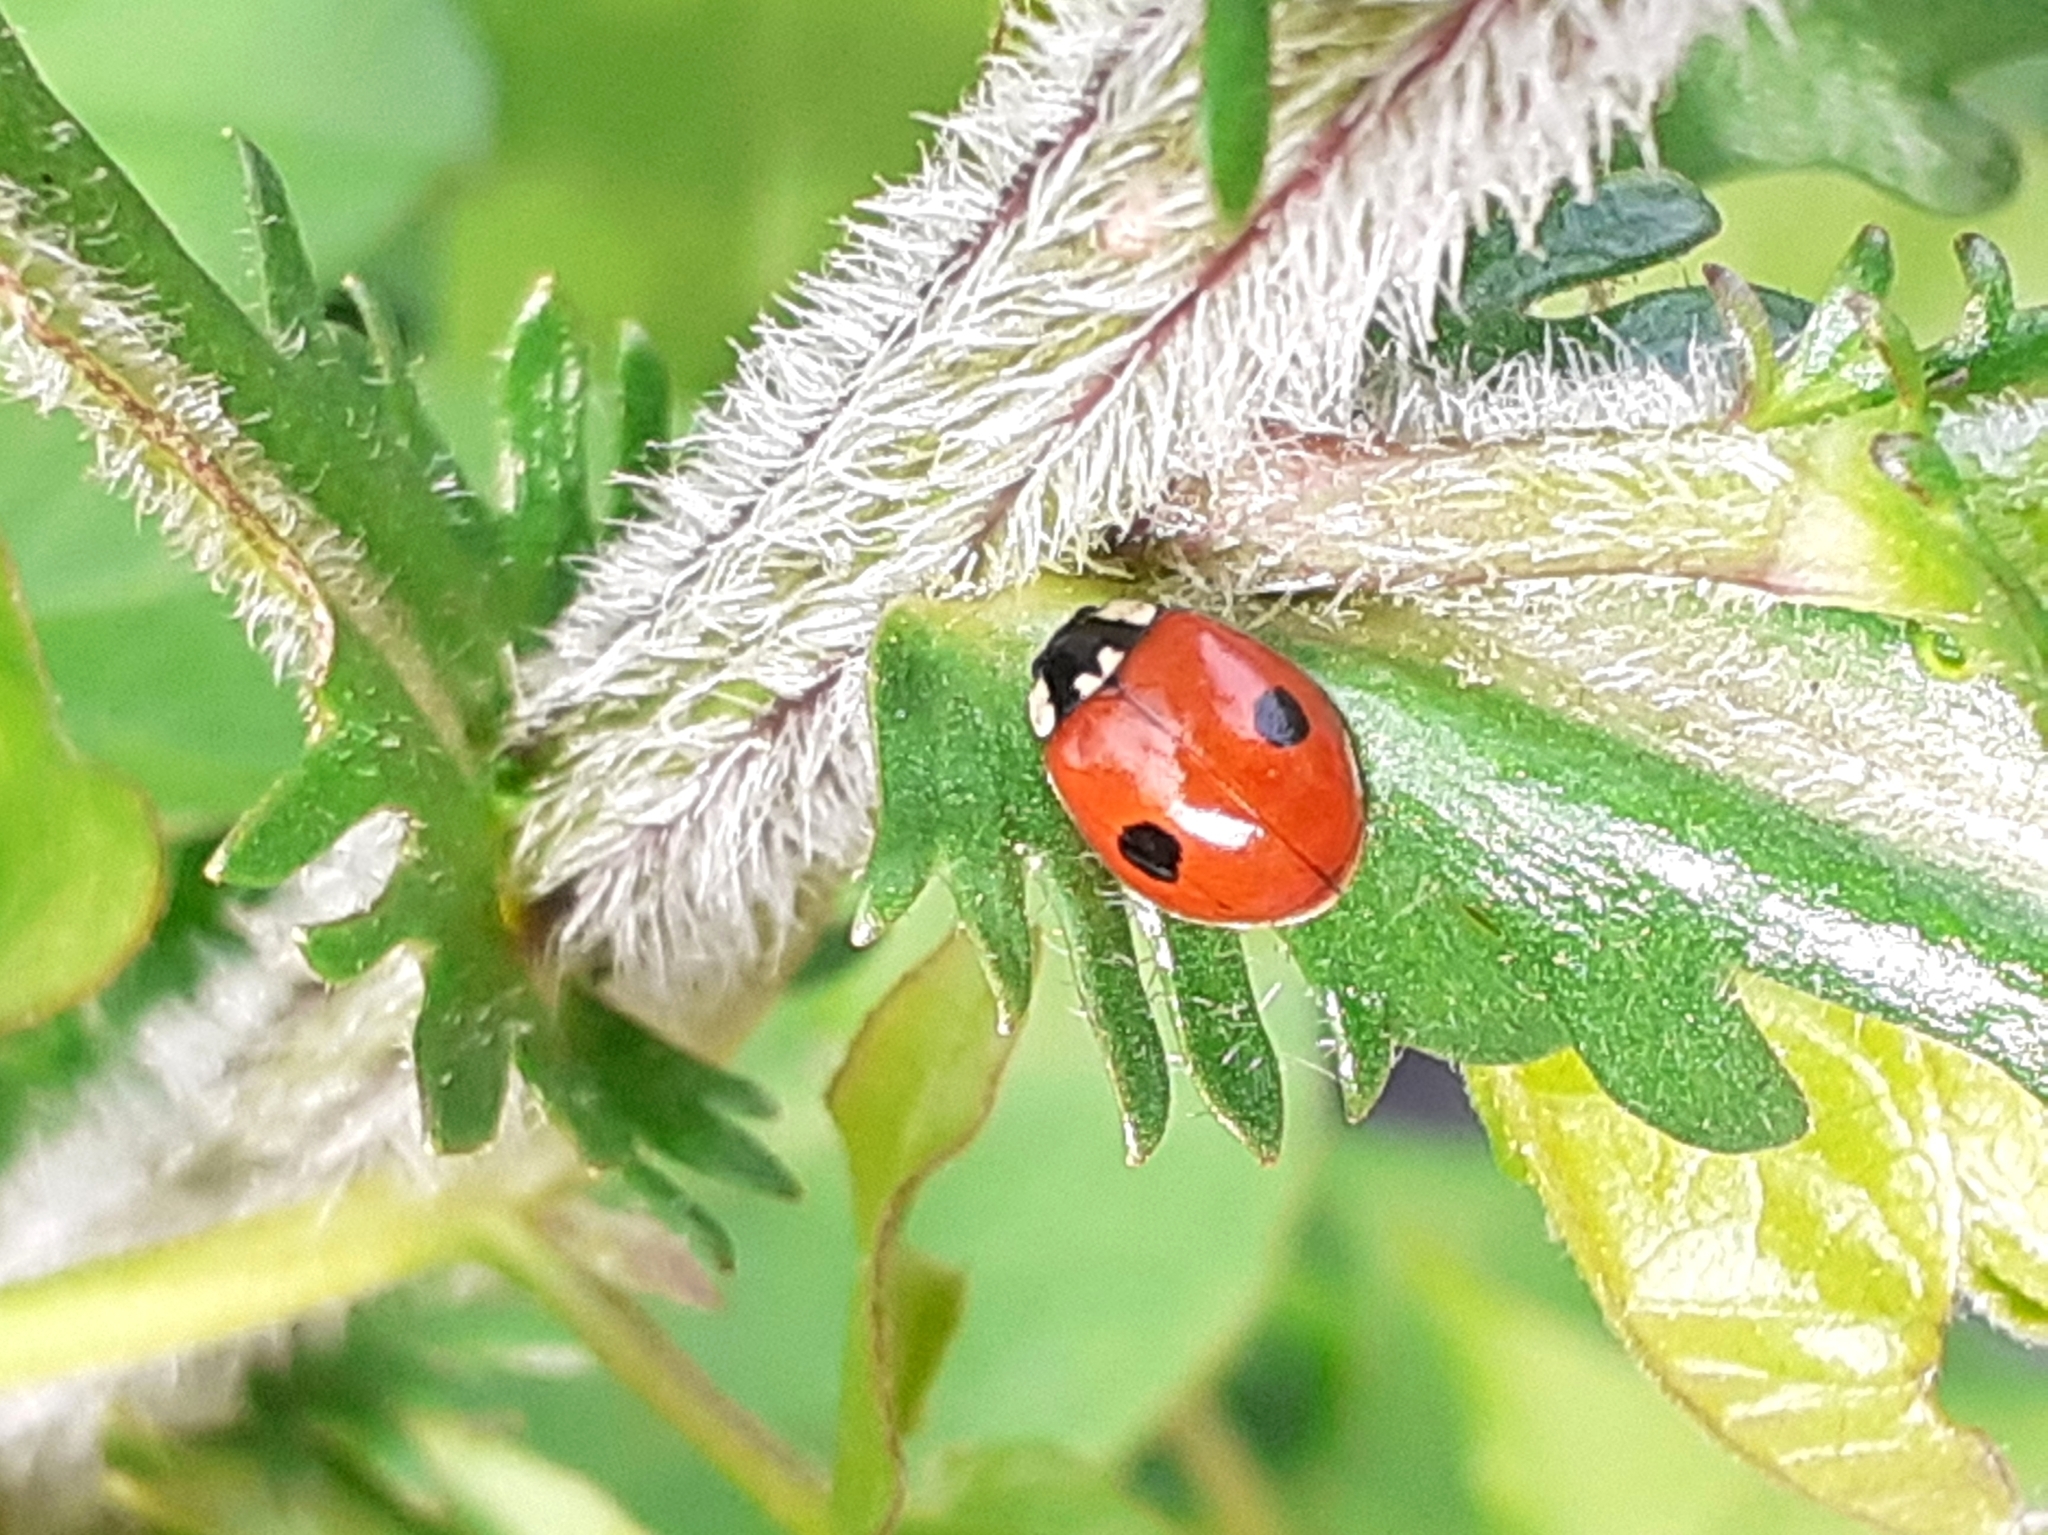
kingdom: Animalia
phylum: Arthropoda
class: Insecta
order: Coleoptera
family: Coccinellidae
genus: Adalia
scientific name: Adalia bipunctata
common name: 2-spot ladybird
